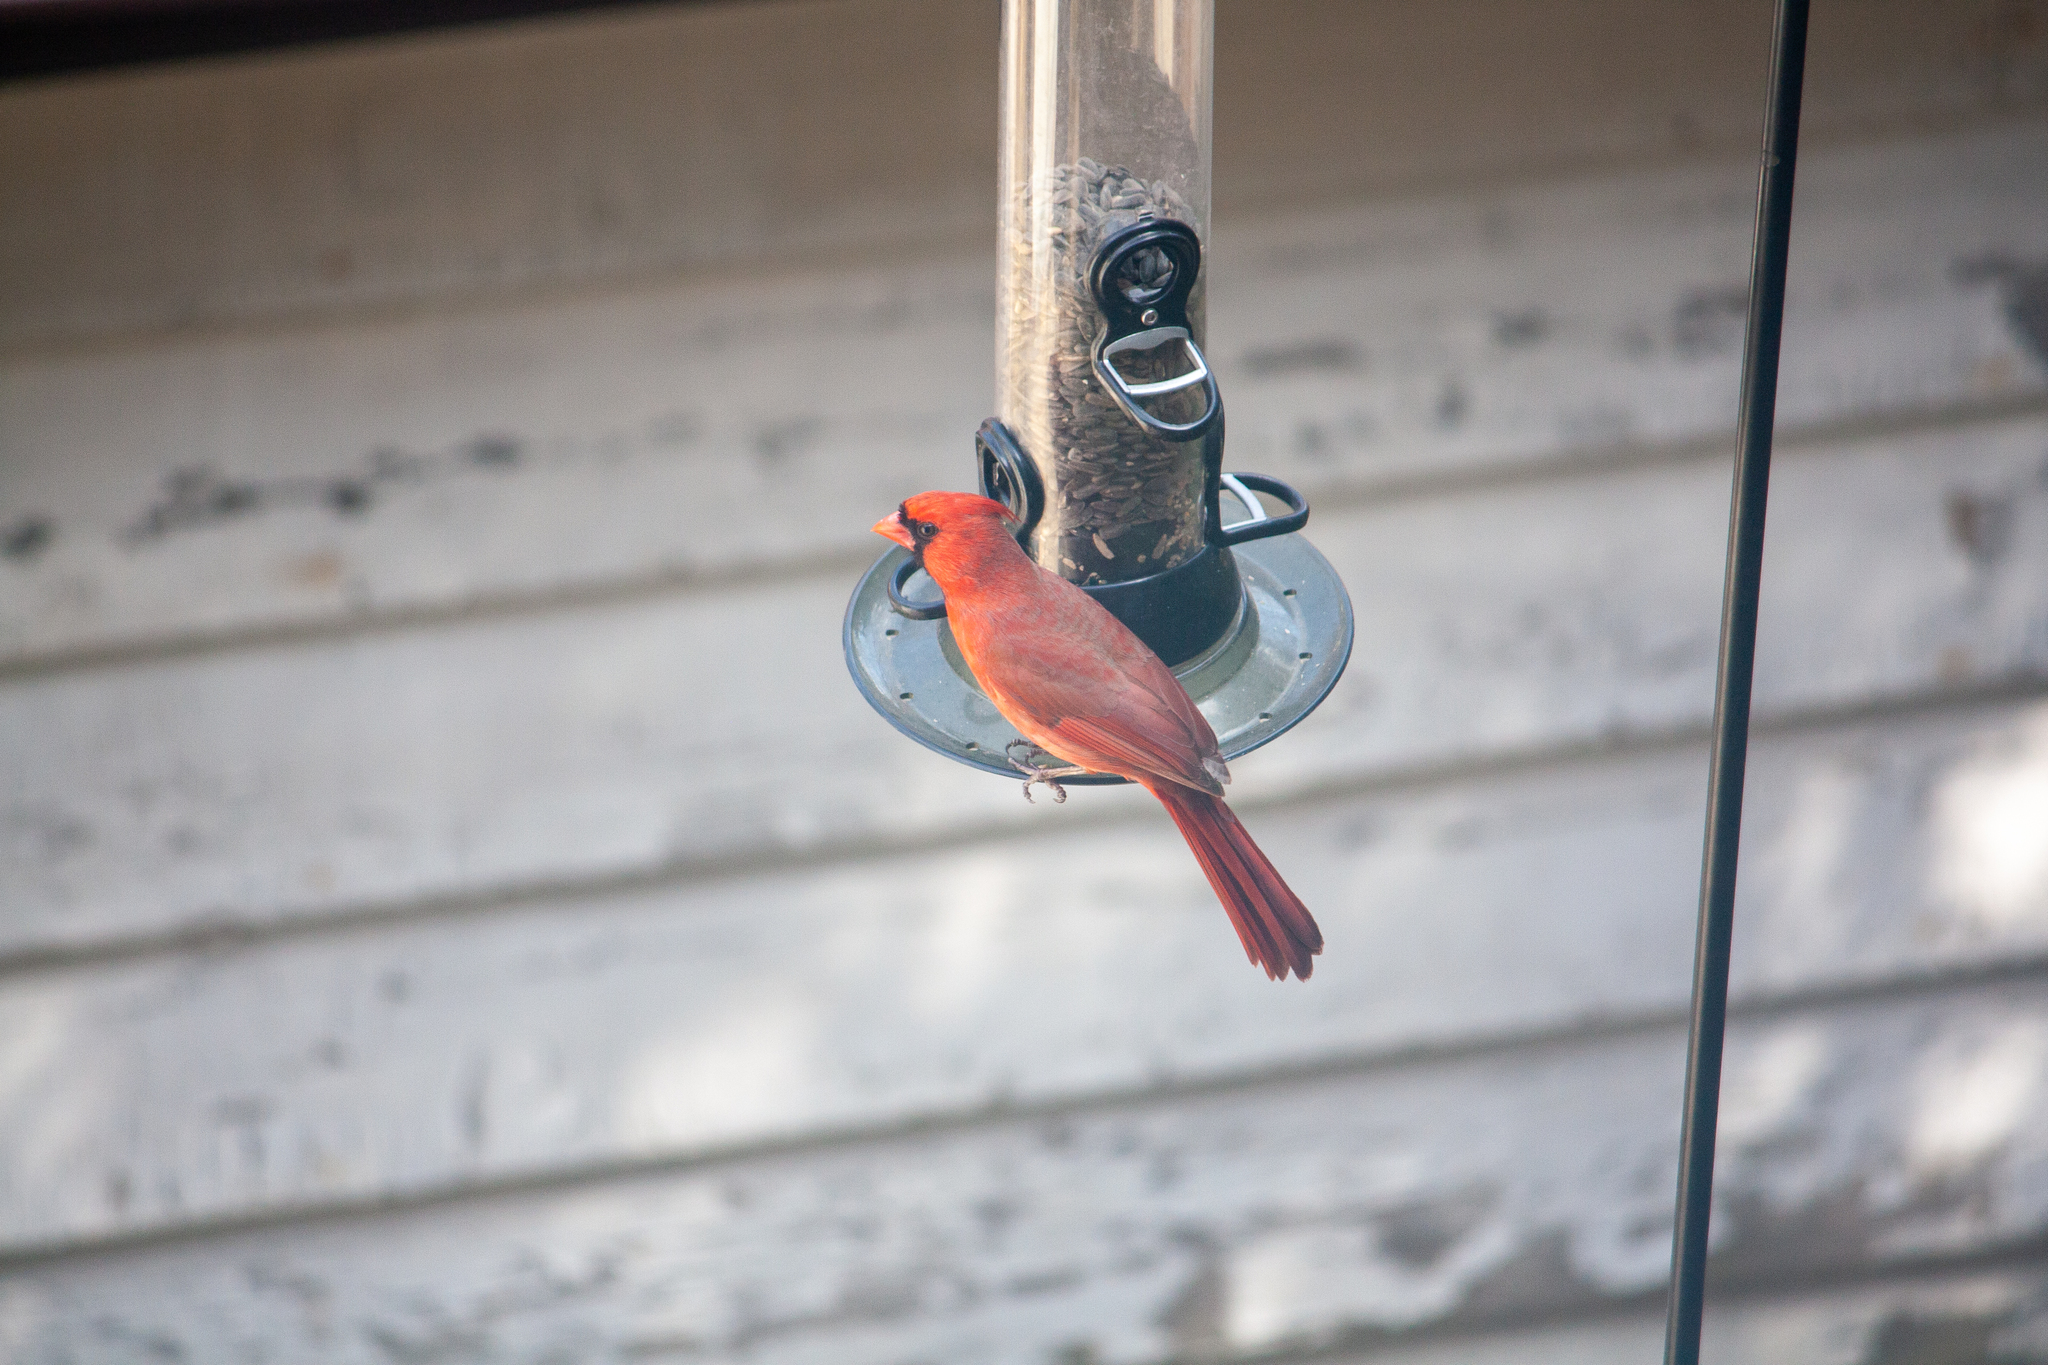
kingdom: Animalia
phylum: Chordata
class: Aves
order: Passeriformes
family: Cardinalidae
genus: Cardinalis
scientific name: Cardinalis cardinalis
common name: Northern cardinal
